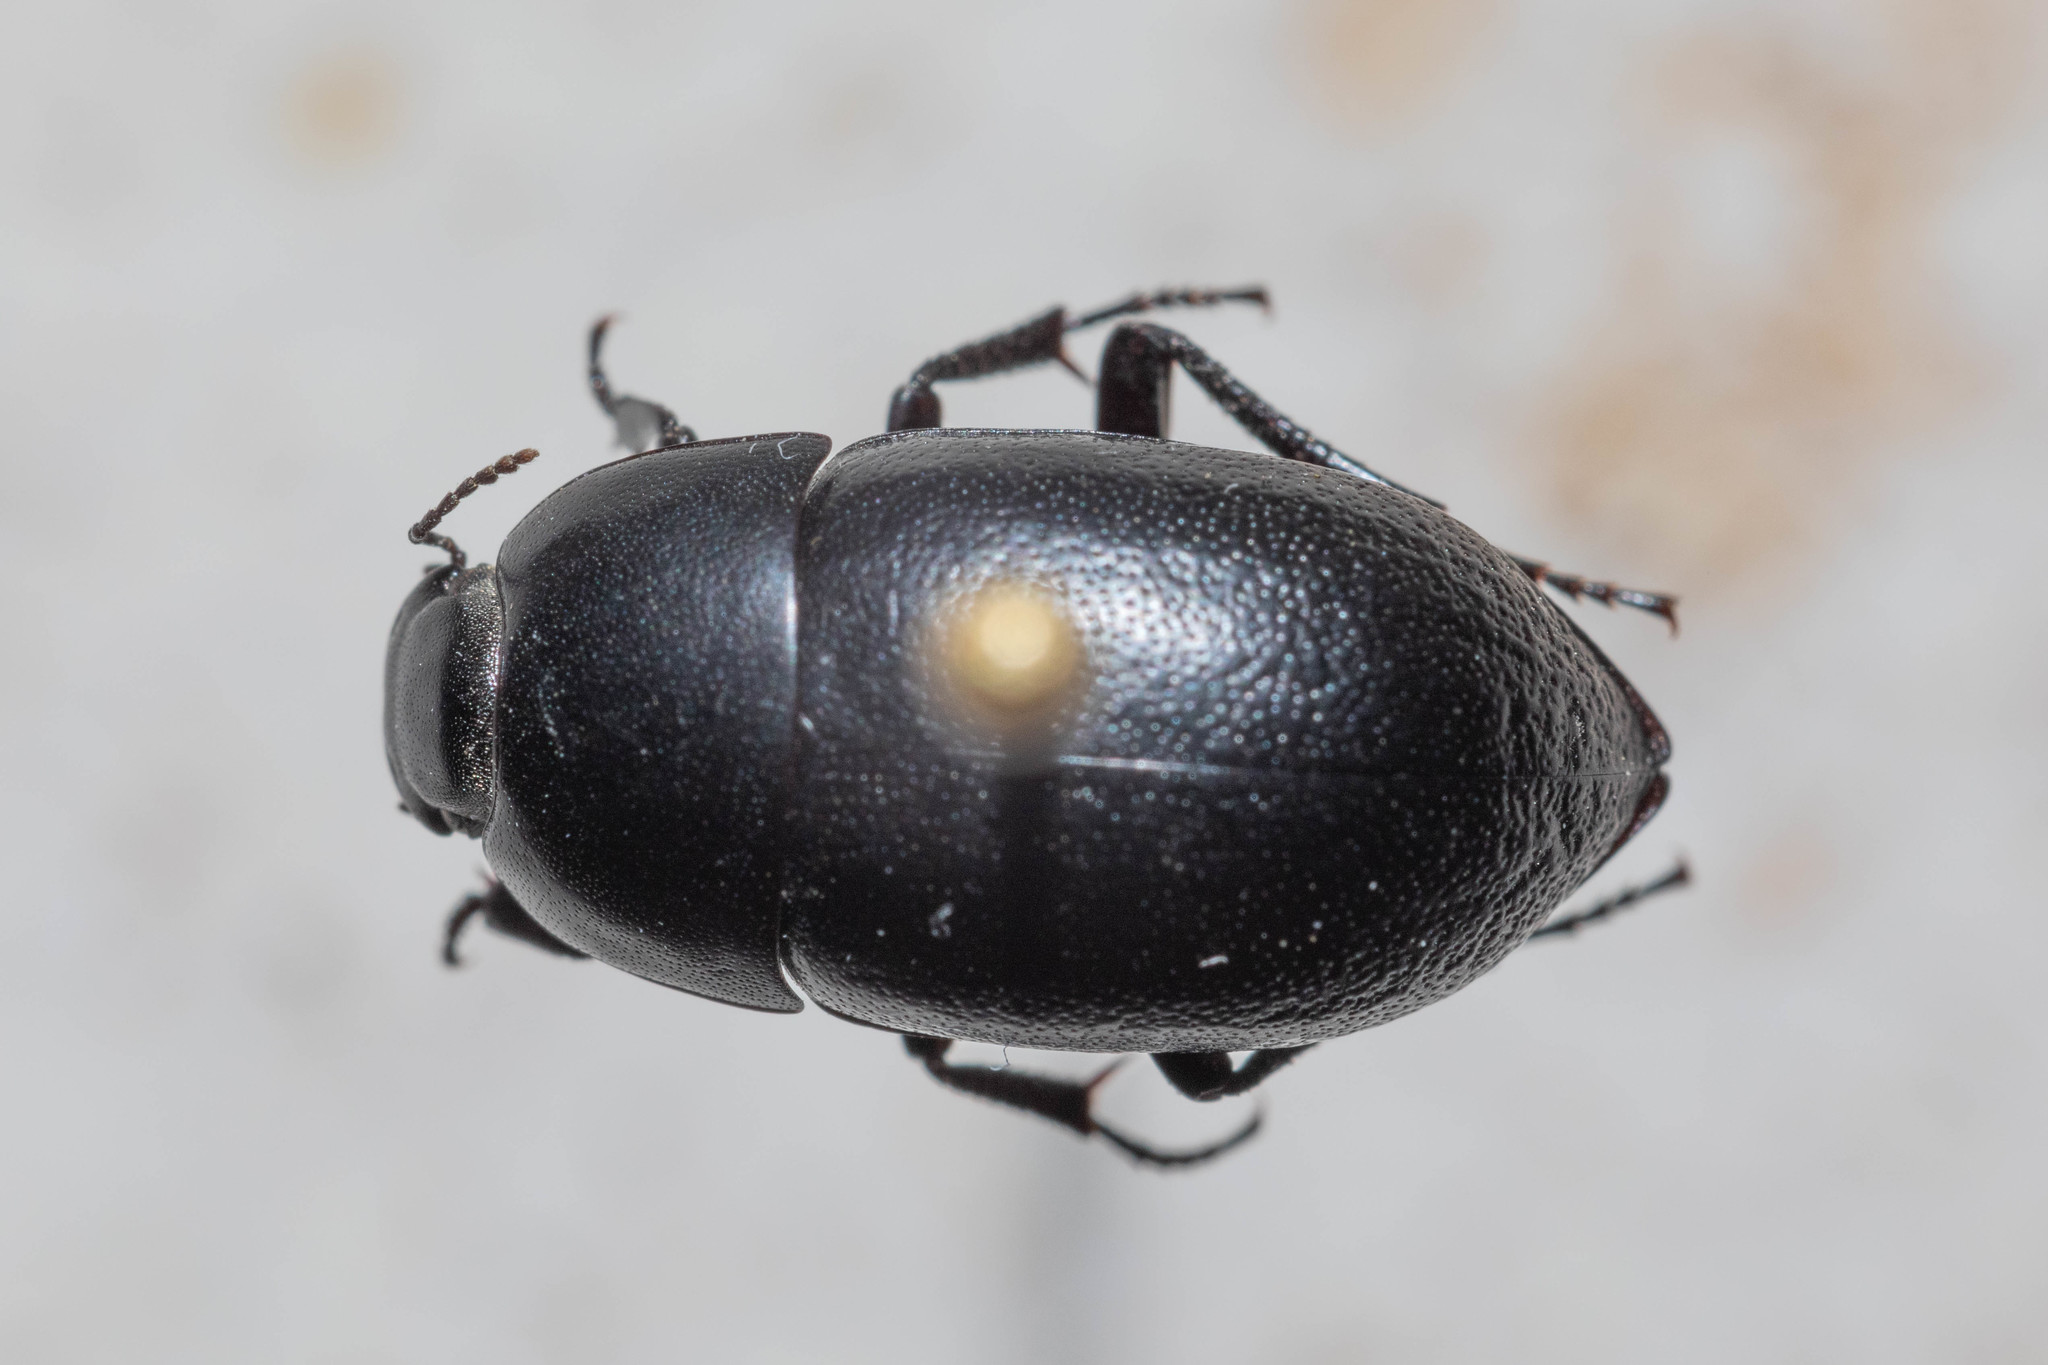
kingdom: Animalia
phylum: Arthropoda
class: Insecta
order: Coleoptera
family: Tenebrionidae
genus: Coniontis
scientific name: Coniontis ovalis
